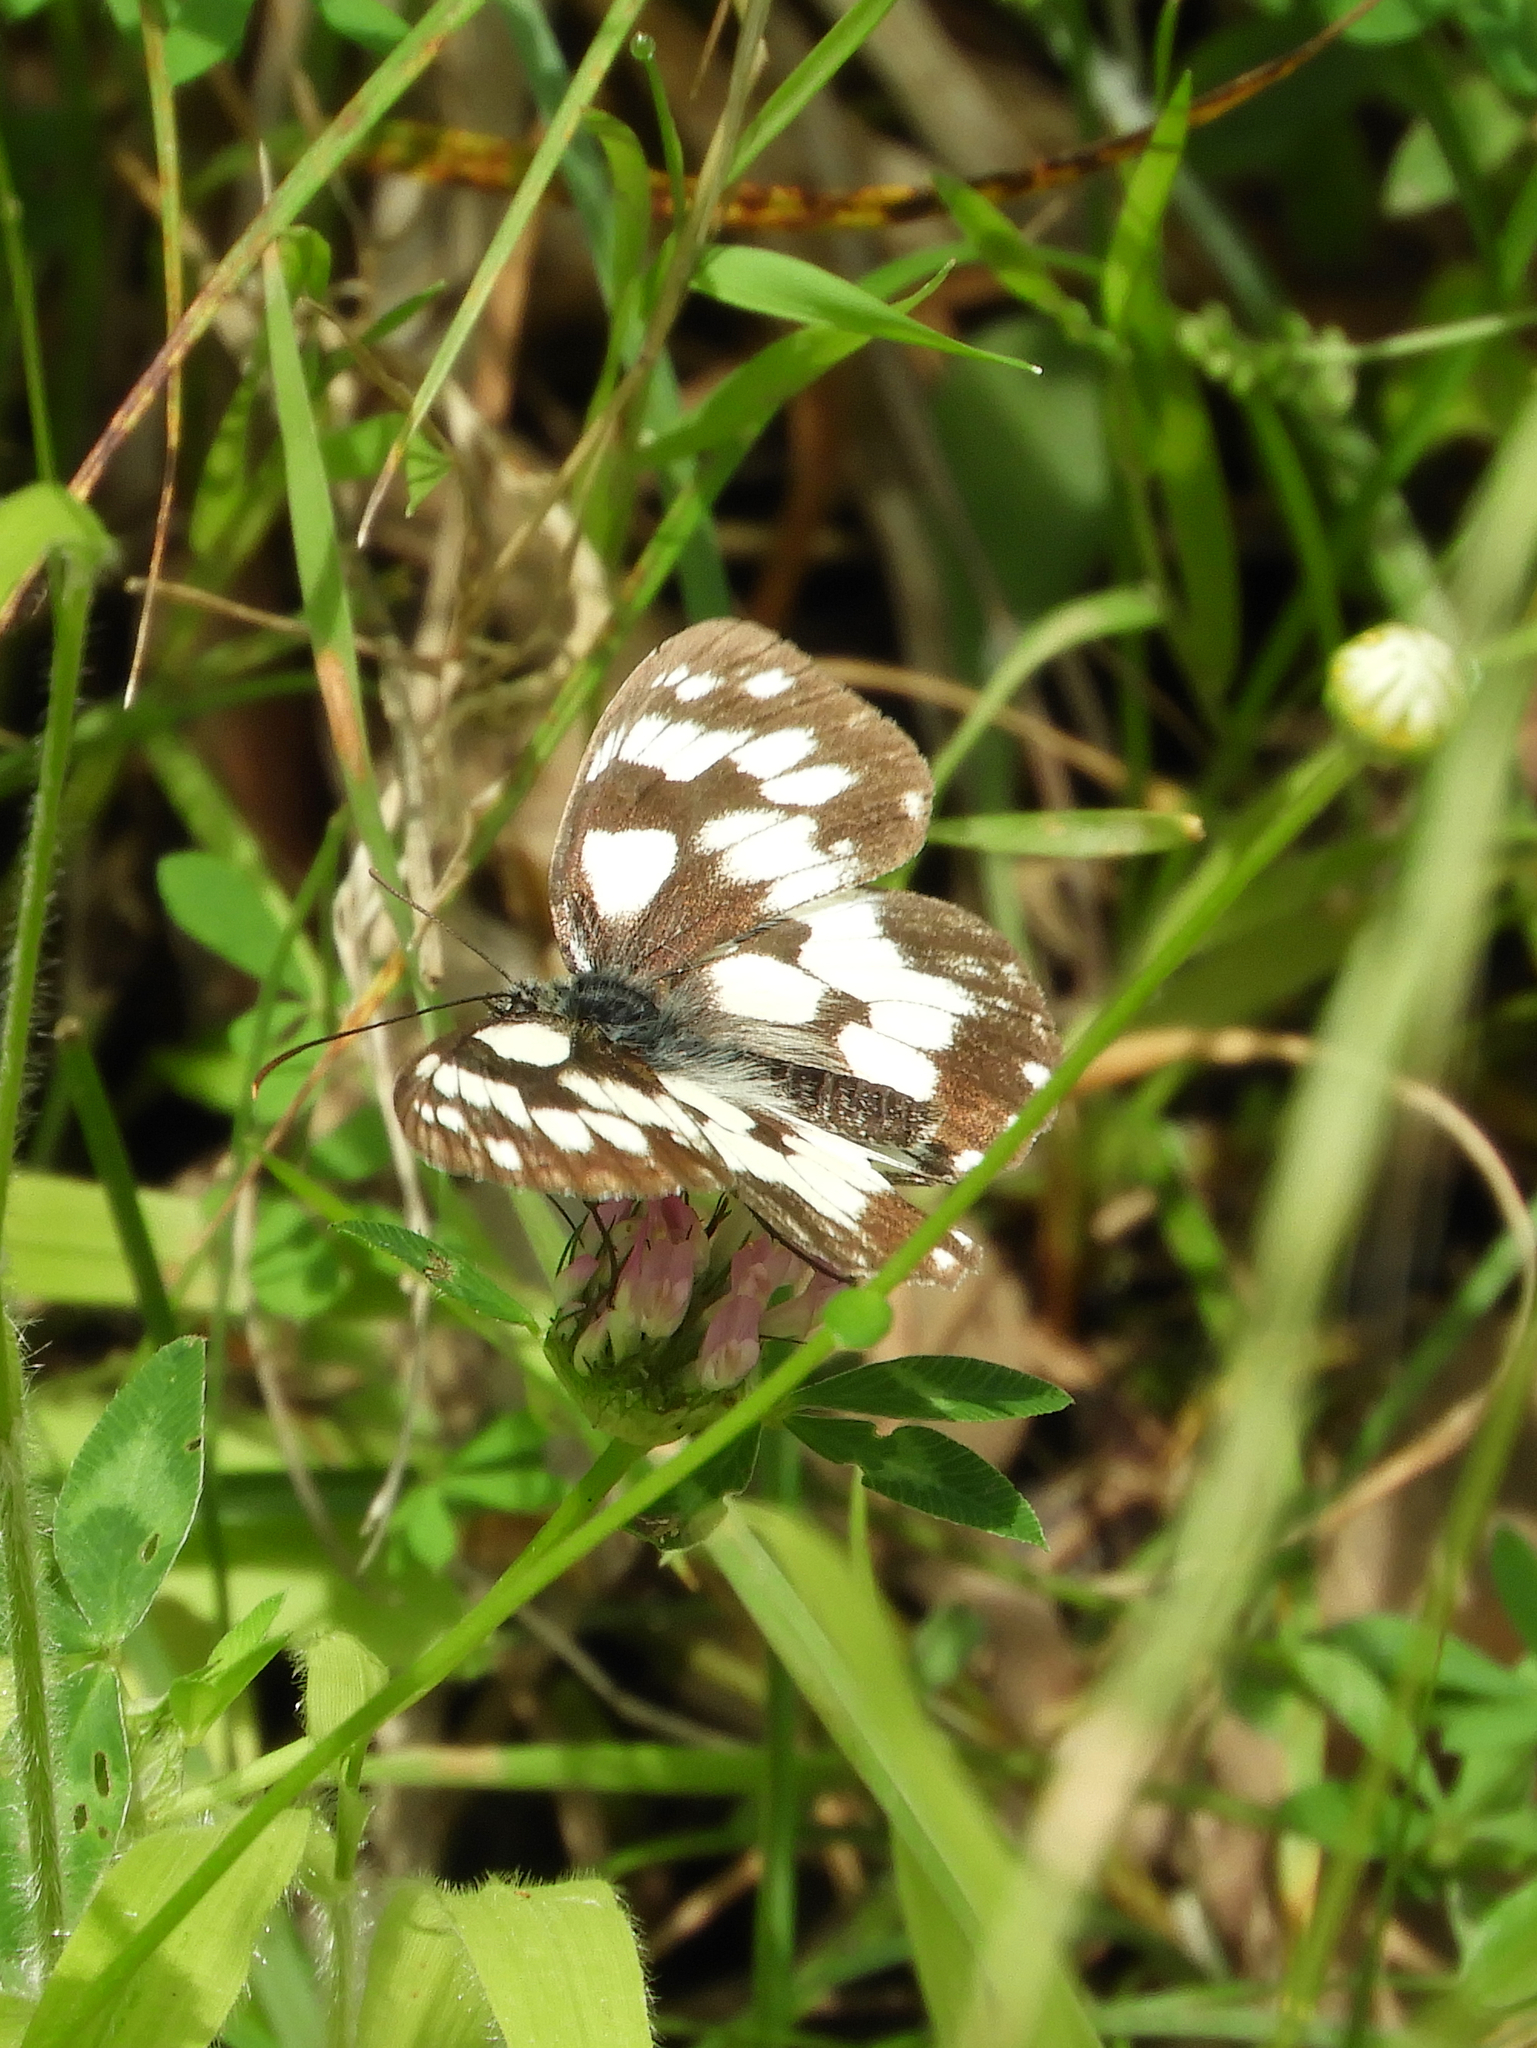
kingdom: Animalia
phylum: Arthropoda
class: Insecta
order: Lepidoptera
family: Nymphalidae
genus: Melanargia
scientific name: Melanargia galathea
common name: Marbled white
